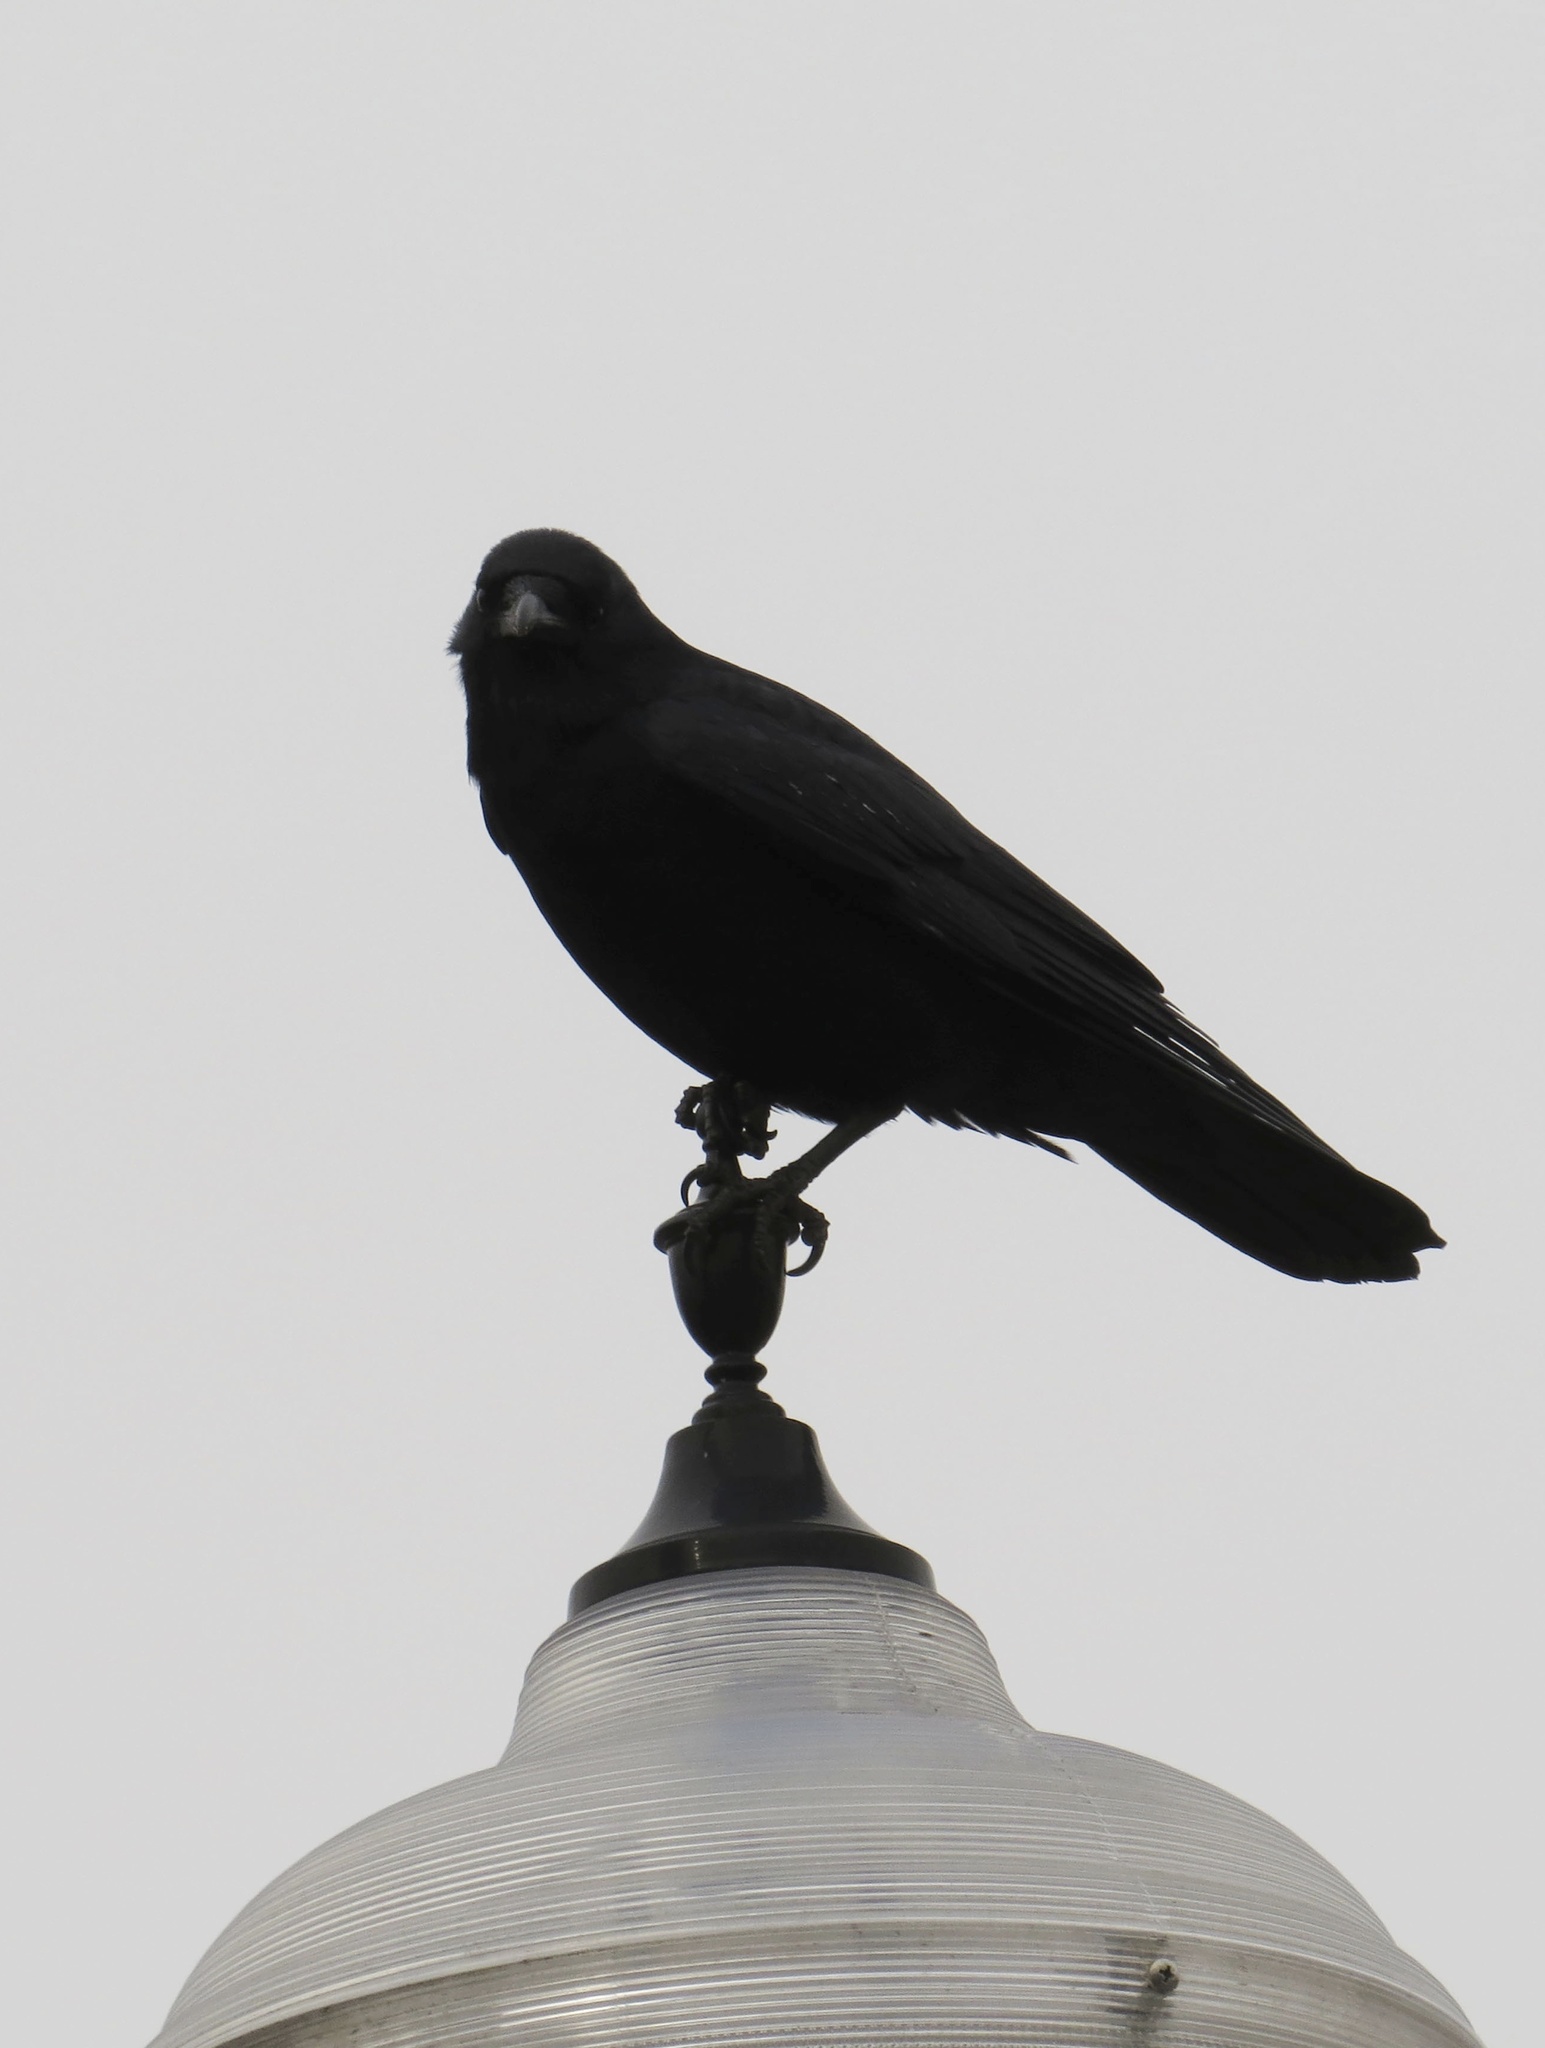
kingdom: Animalia
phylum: Chordata
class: Aves
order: Passeriformes
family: Corvidae
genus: Corvus
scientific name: Corvus brachyrhynchos
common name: American crow
